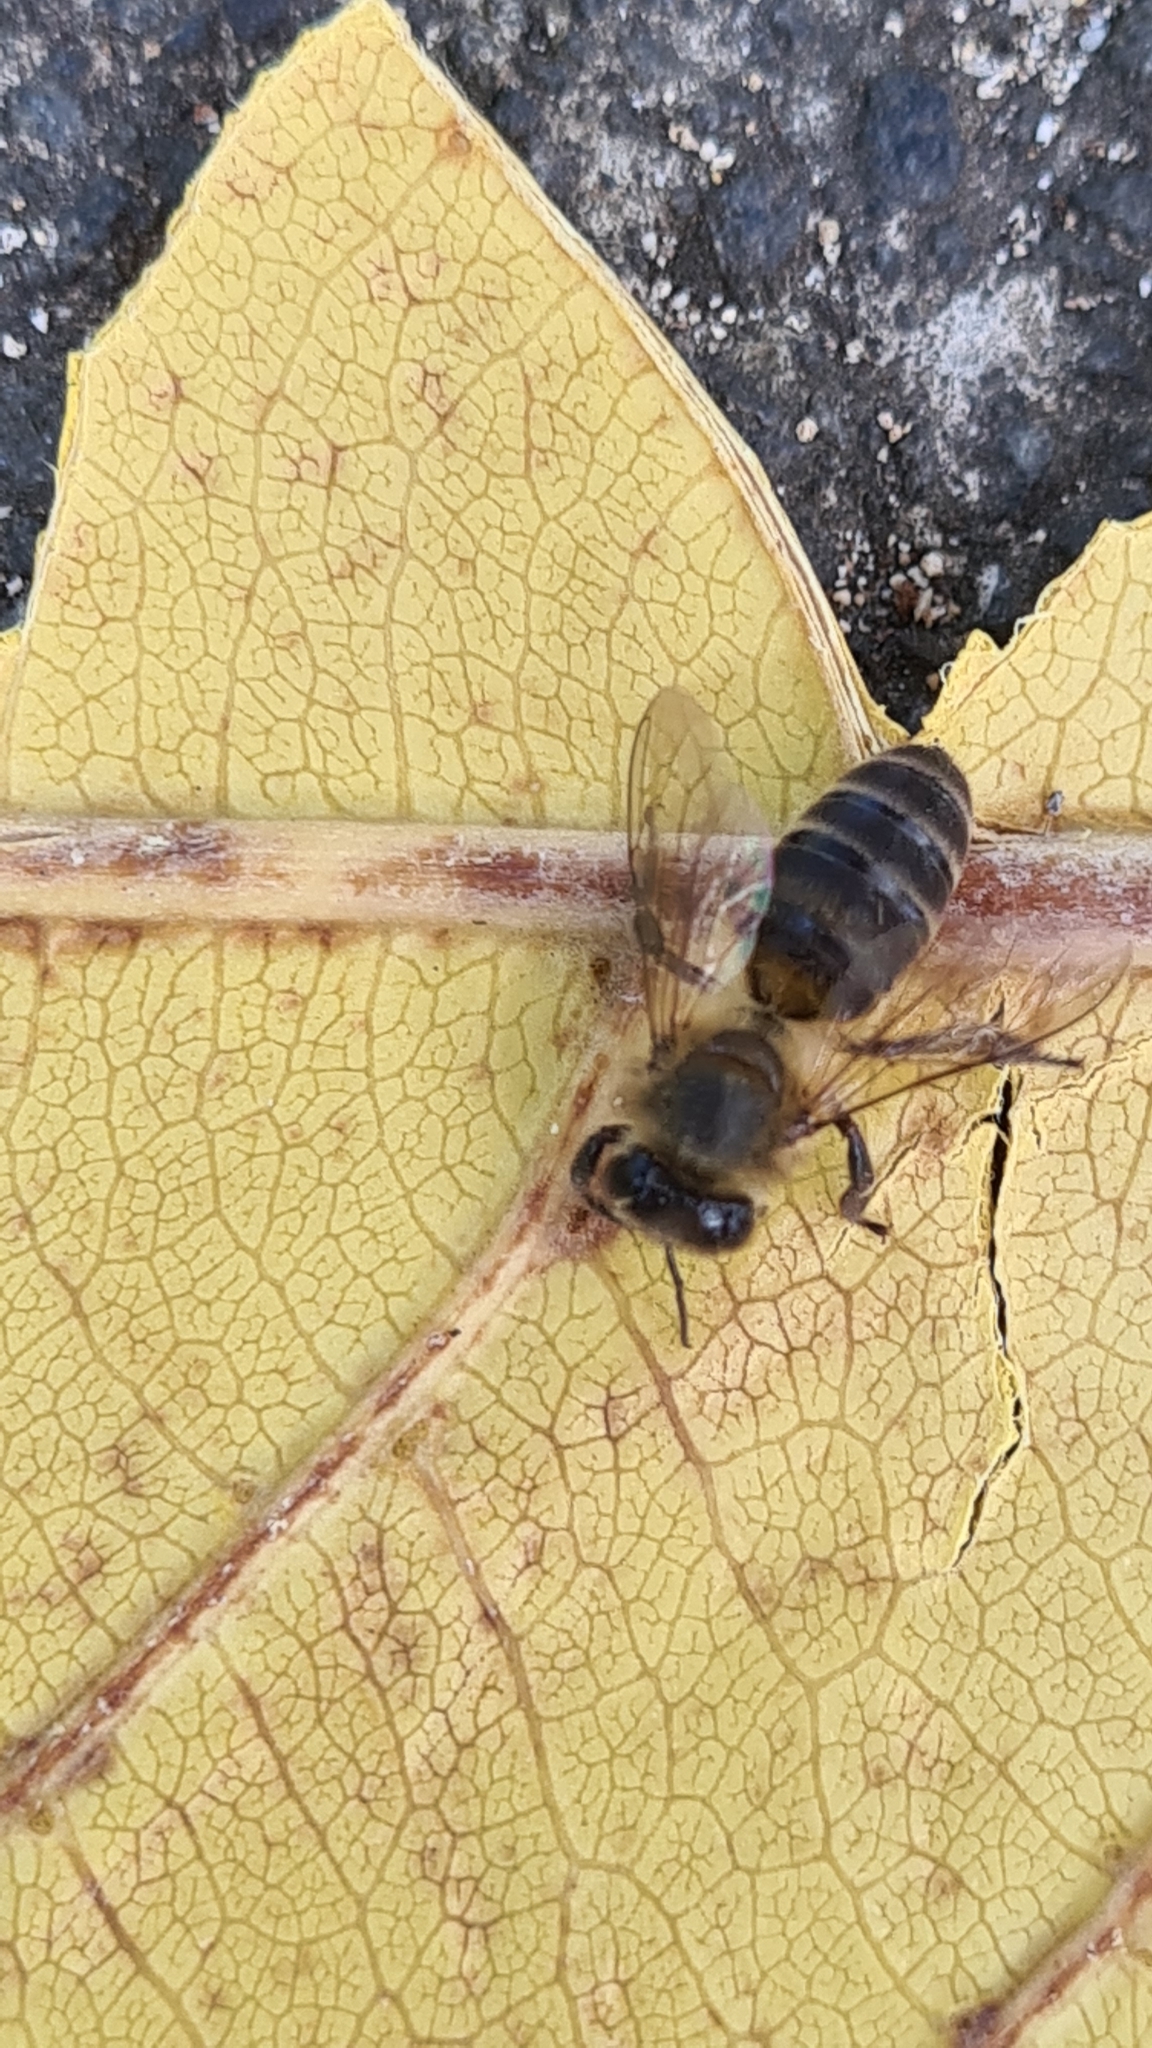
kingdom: Animalia
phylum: Arthropoda
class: Insecta
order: Hymenoptera
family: Apidae
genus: Apis
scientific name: Apis mellifera
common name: Honey bee
